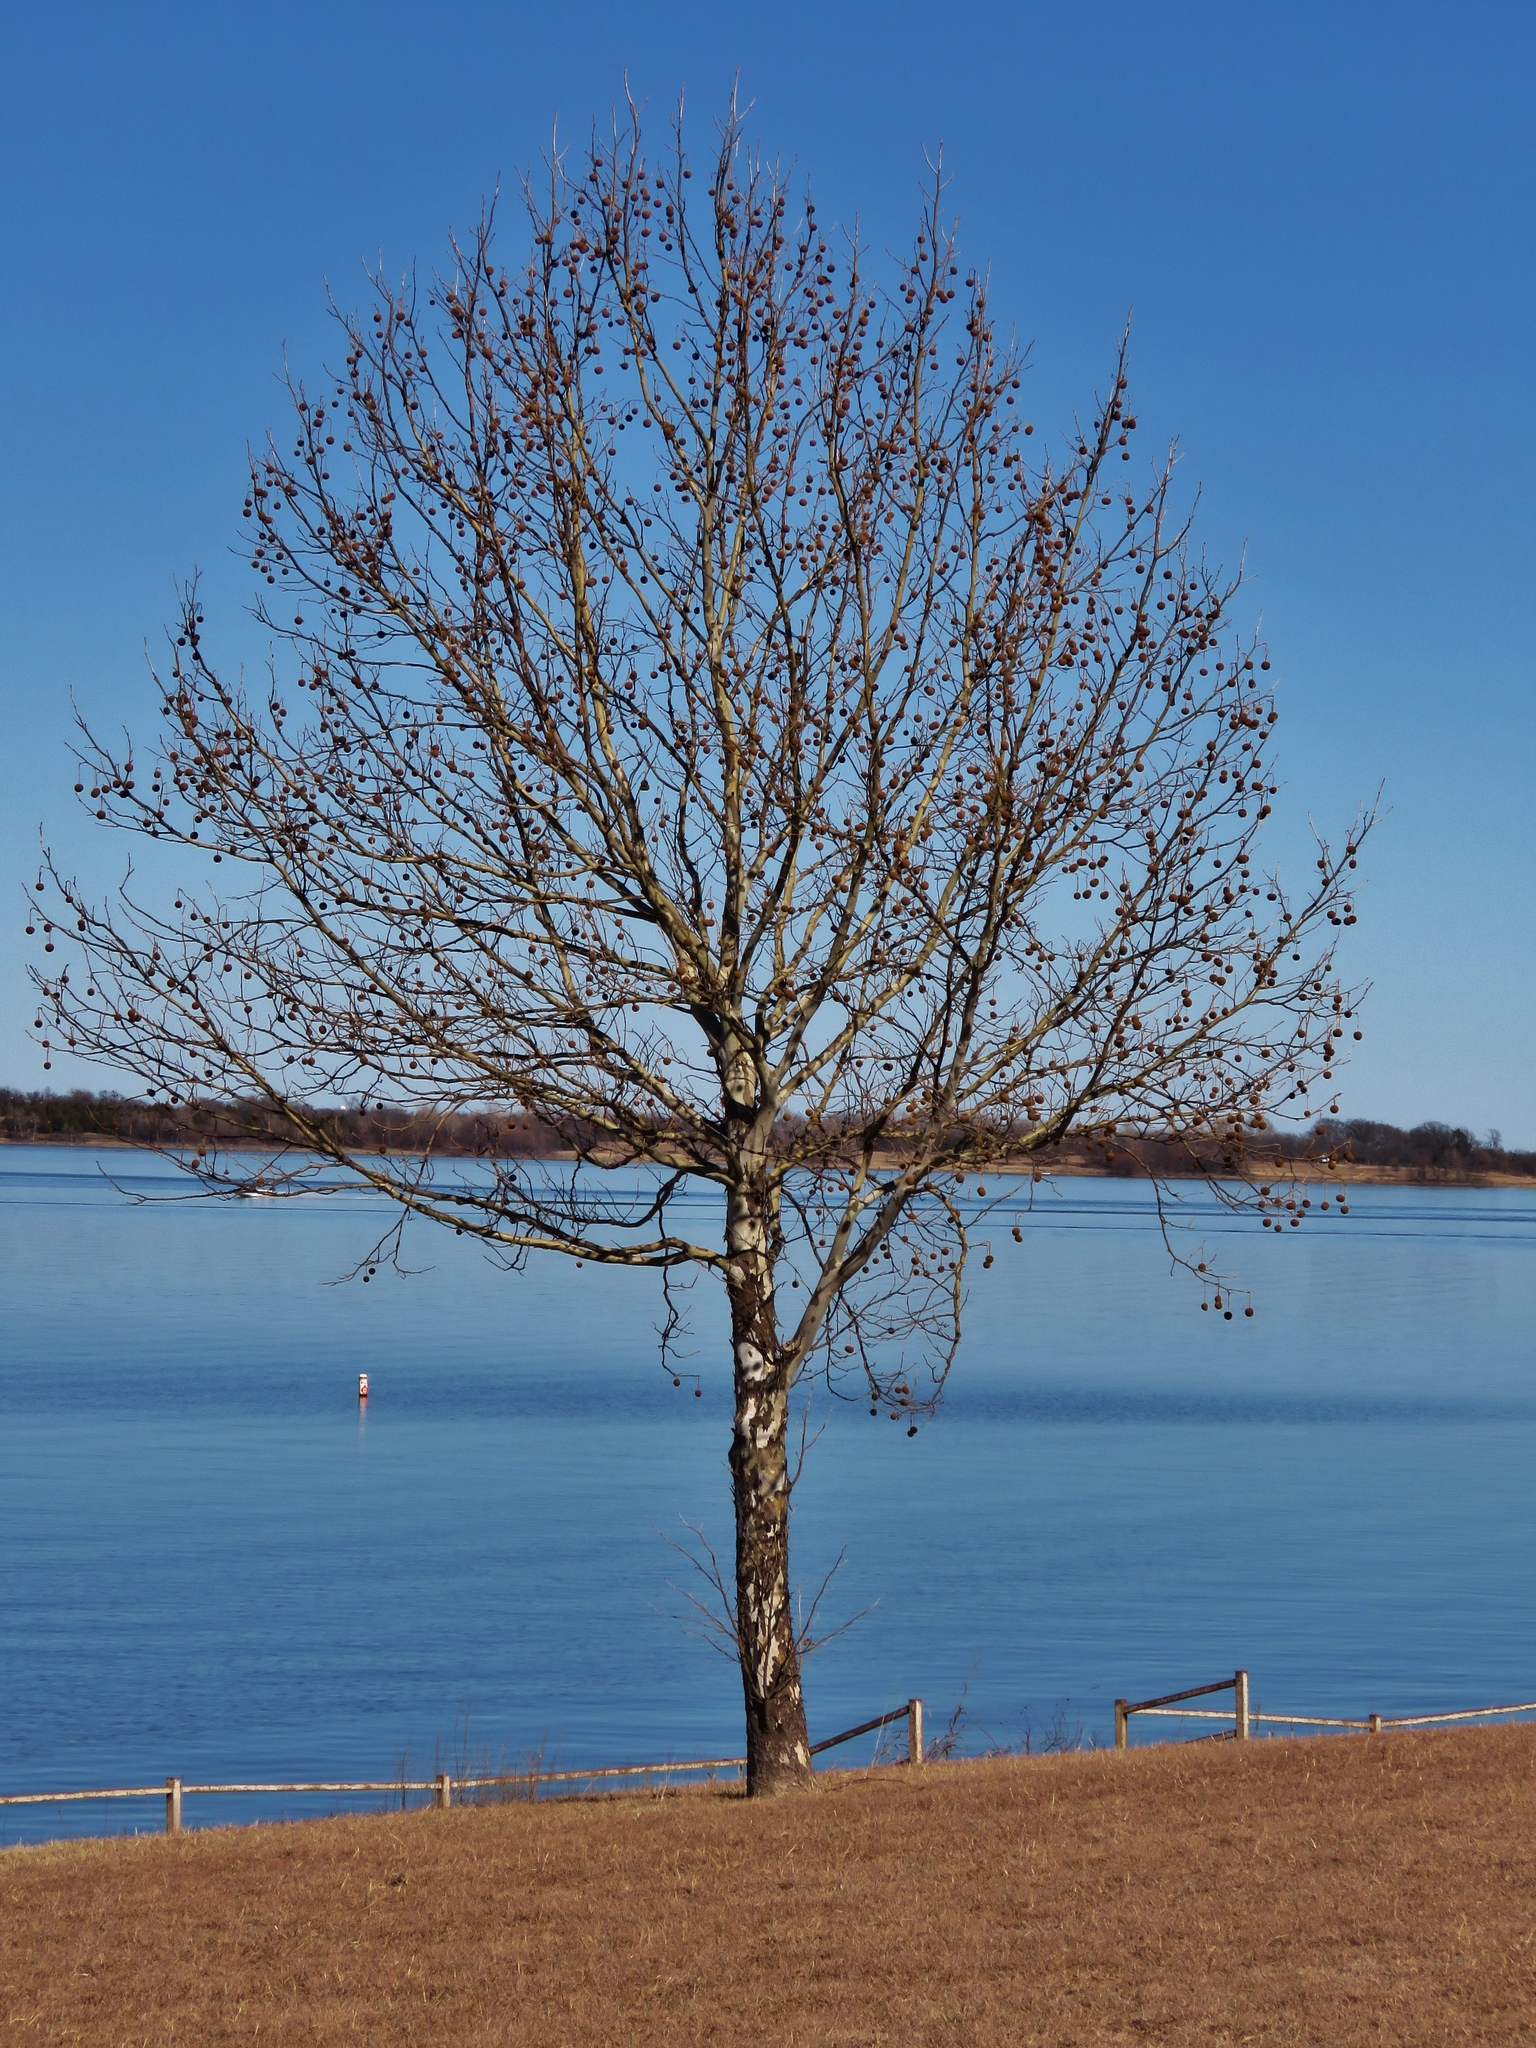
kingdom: Plantae
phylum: Tracheophyta
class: Magnoliopsida
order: Proteales
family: Platanaceae
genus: Platanus
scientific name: Platanus occidentalis
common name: American sycamore
